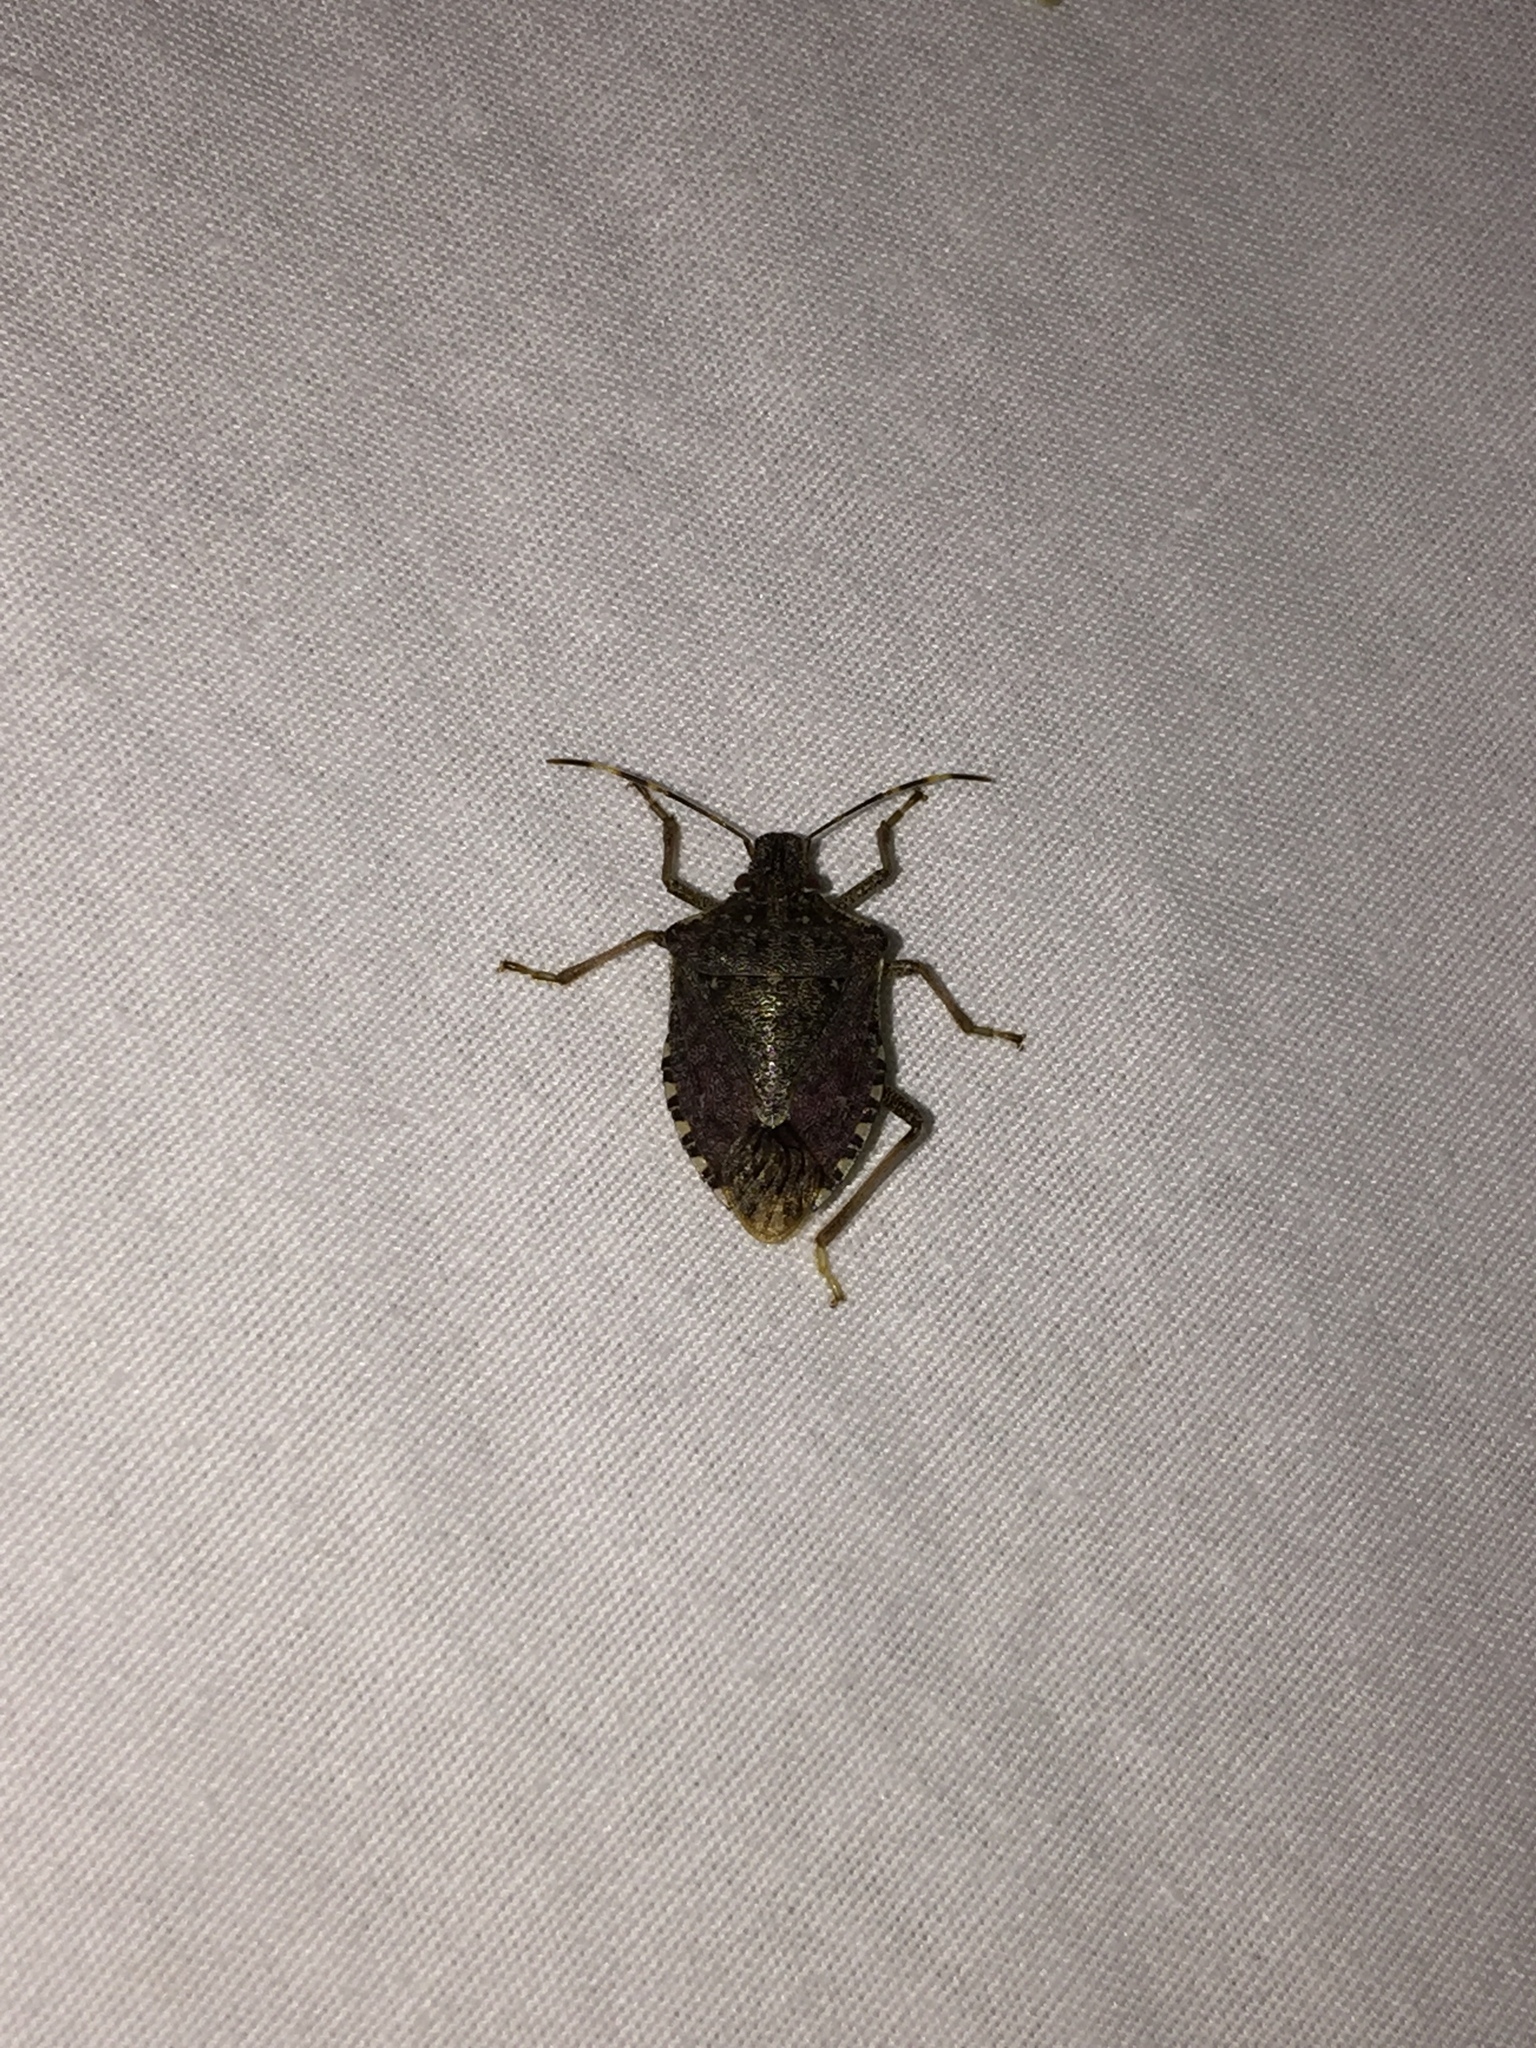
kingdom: Animalia
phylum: Arthropoda
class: Insecta
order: Hemiptera
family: Pentatomidae
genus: Halyomorpha
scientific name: Halyomorpha halys
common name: Brown marmorated stink bug
